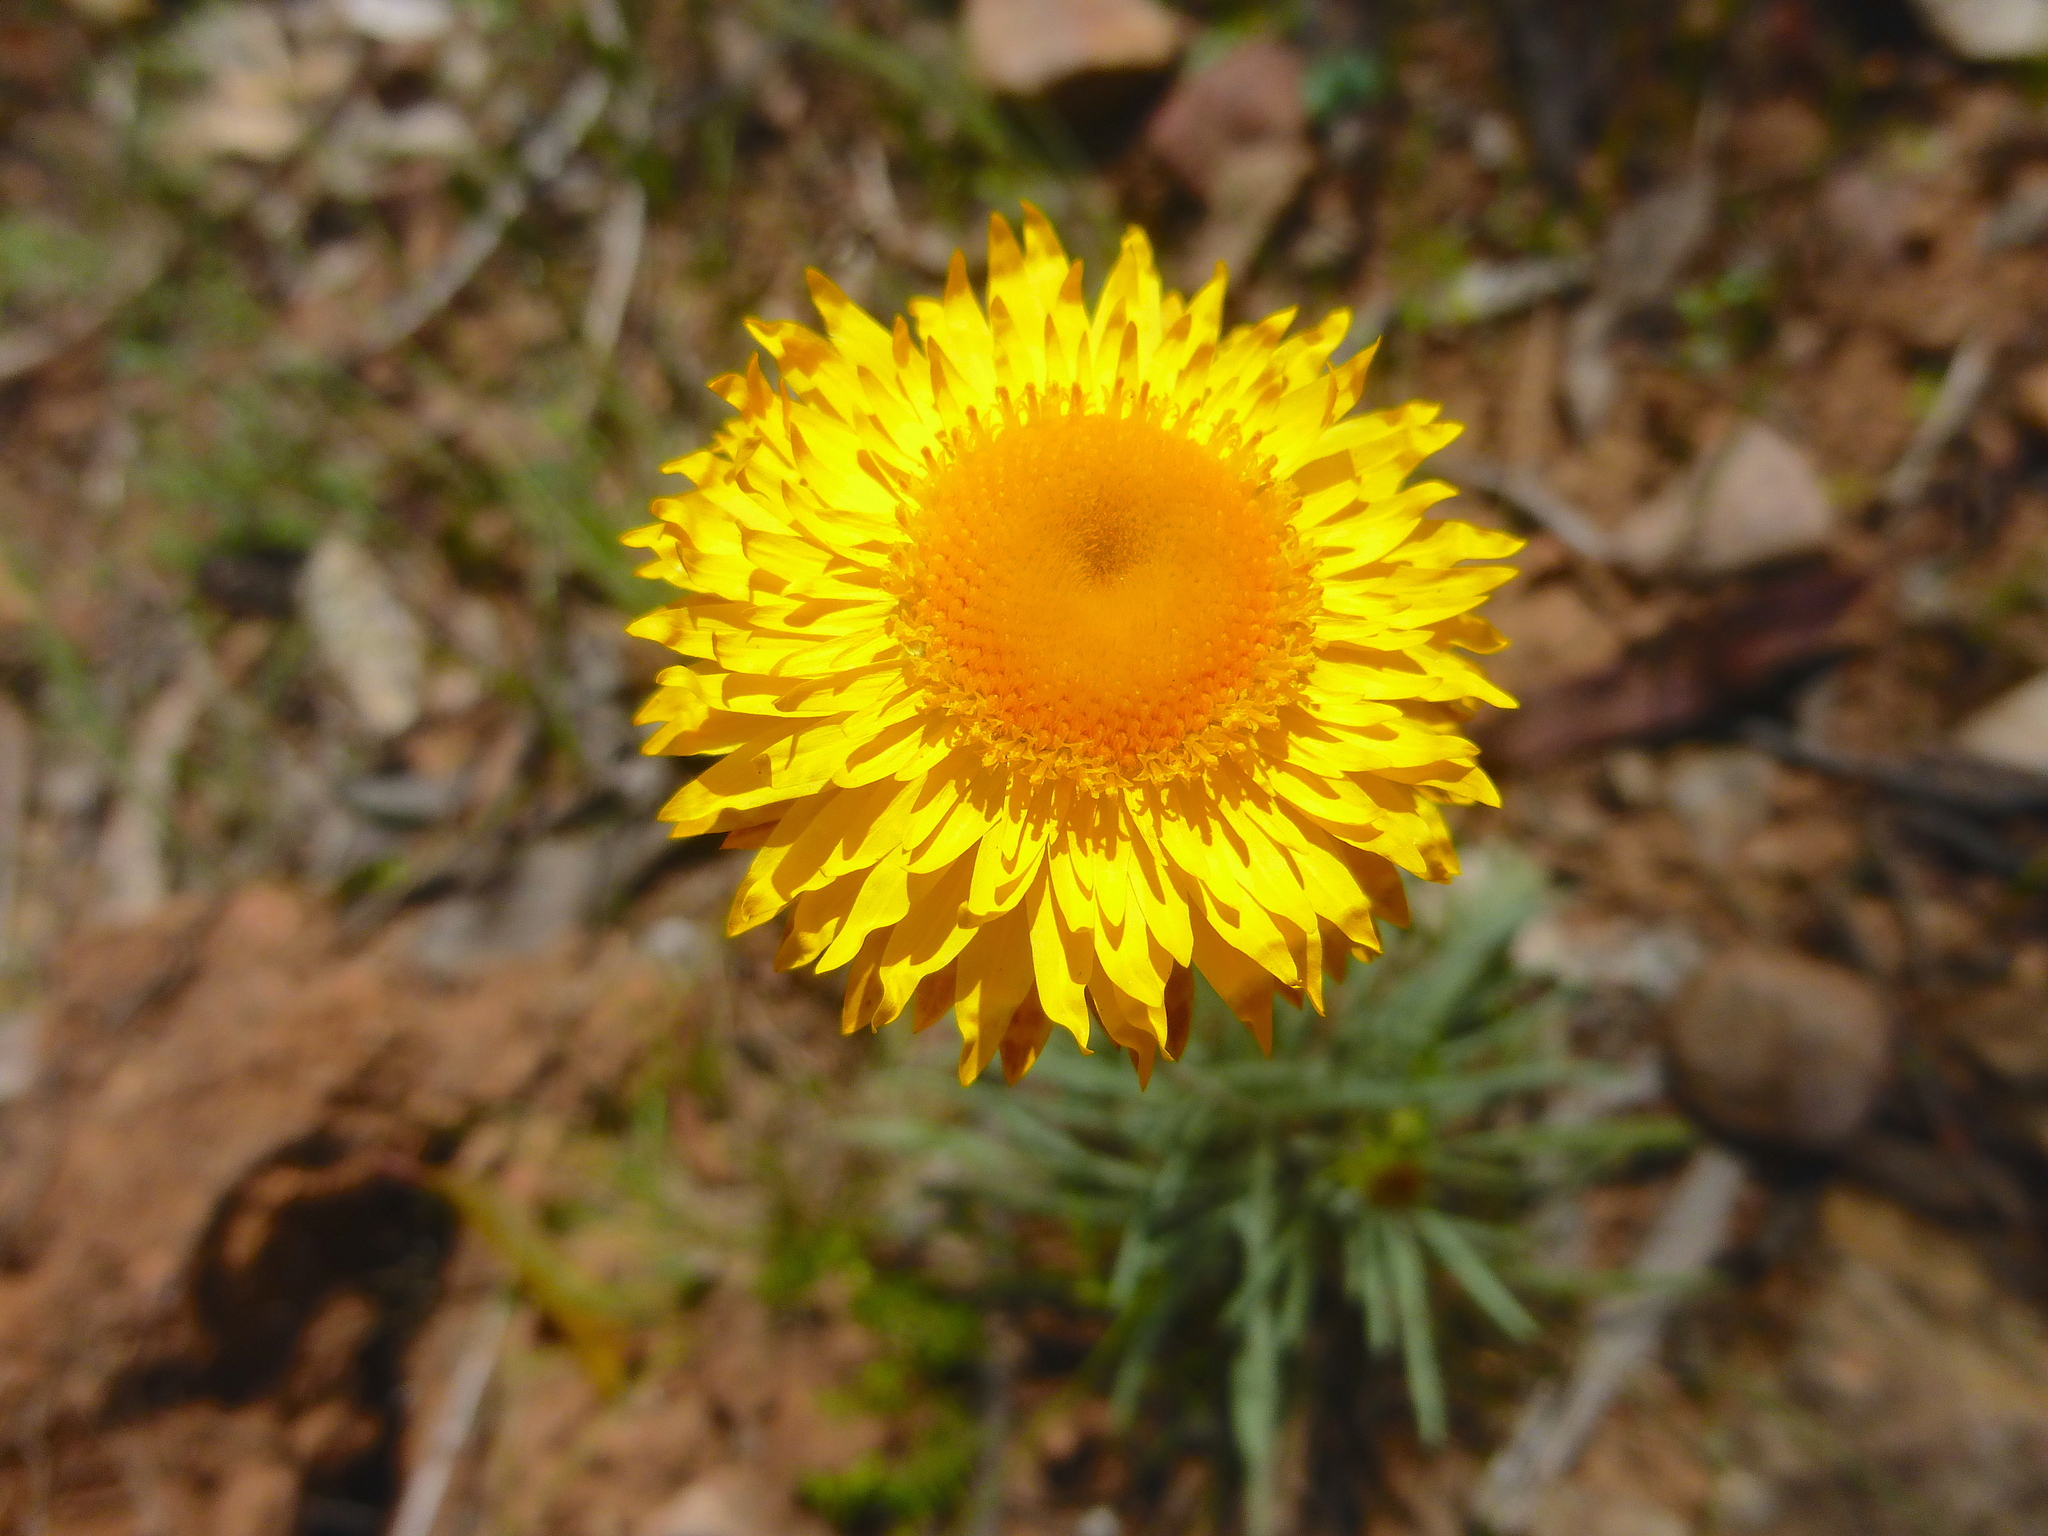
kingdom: Plantae
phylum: Tracheophyta
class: Magnoliopsida
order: Asterales
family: Asteraceae
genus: Leucochrysum
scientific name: Leucochrysum albicans
